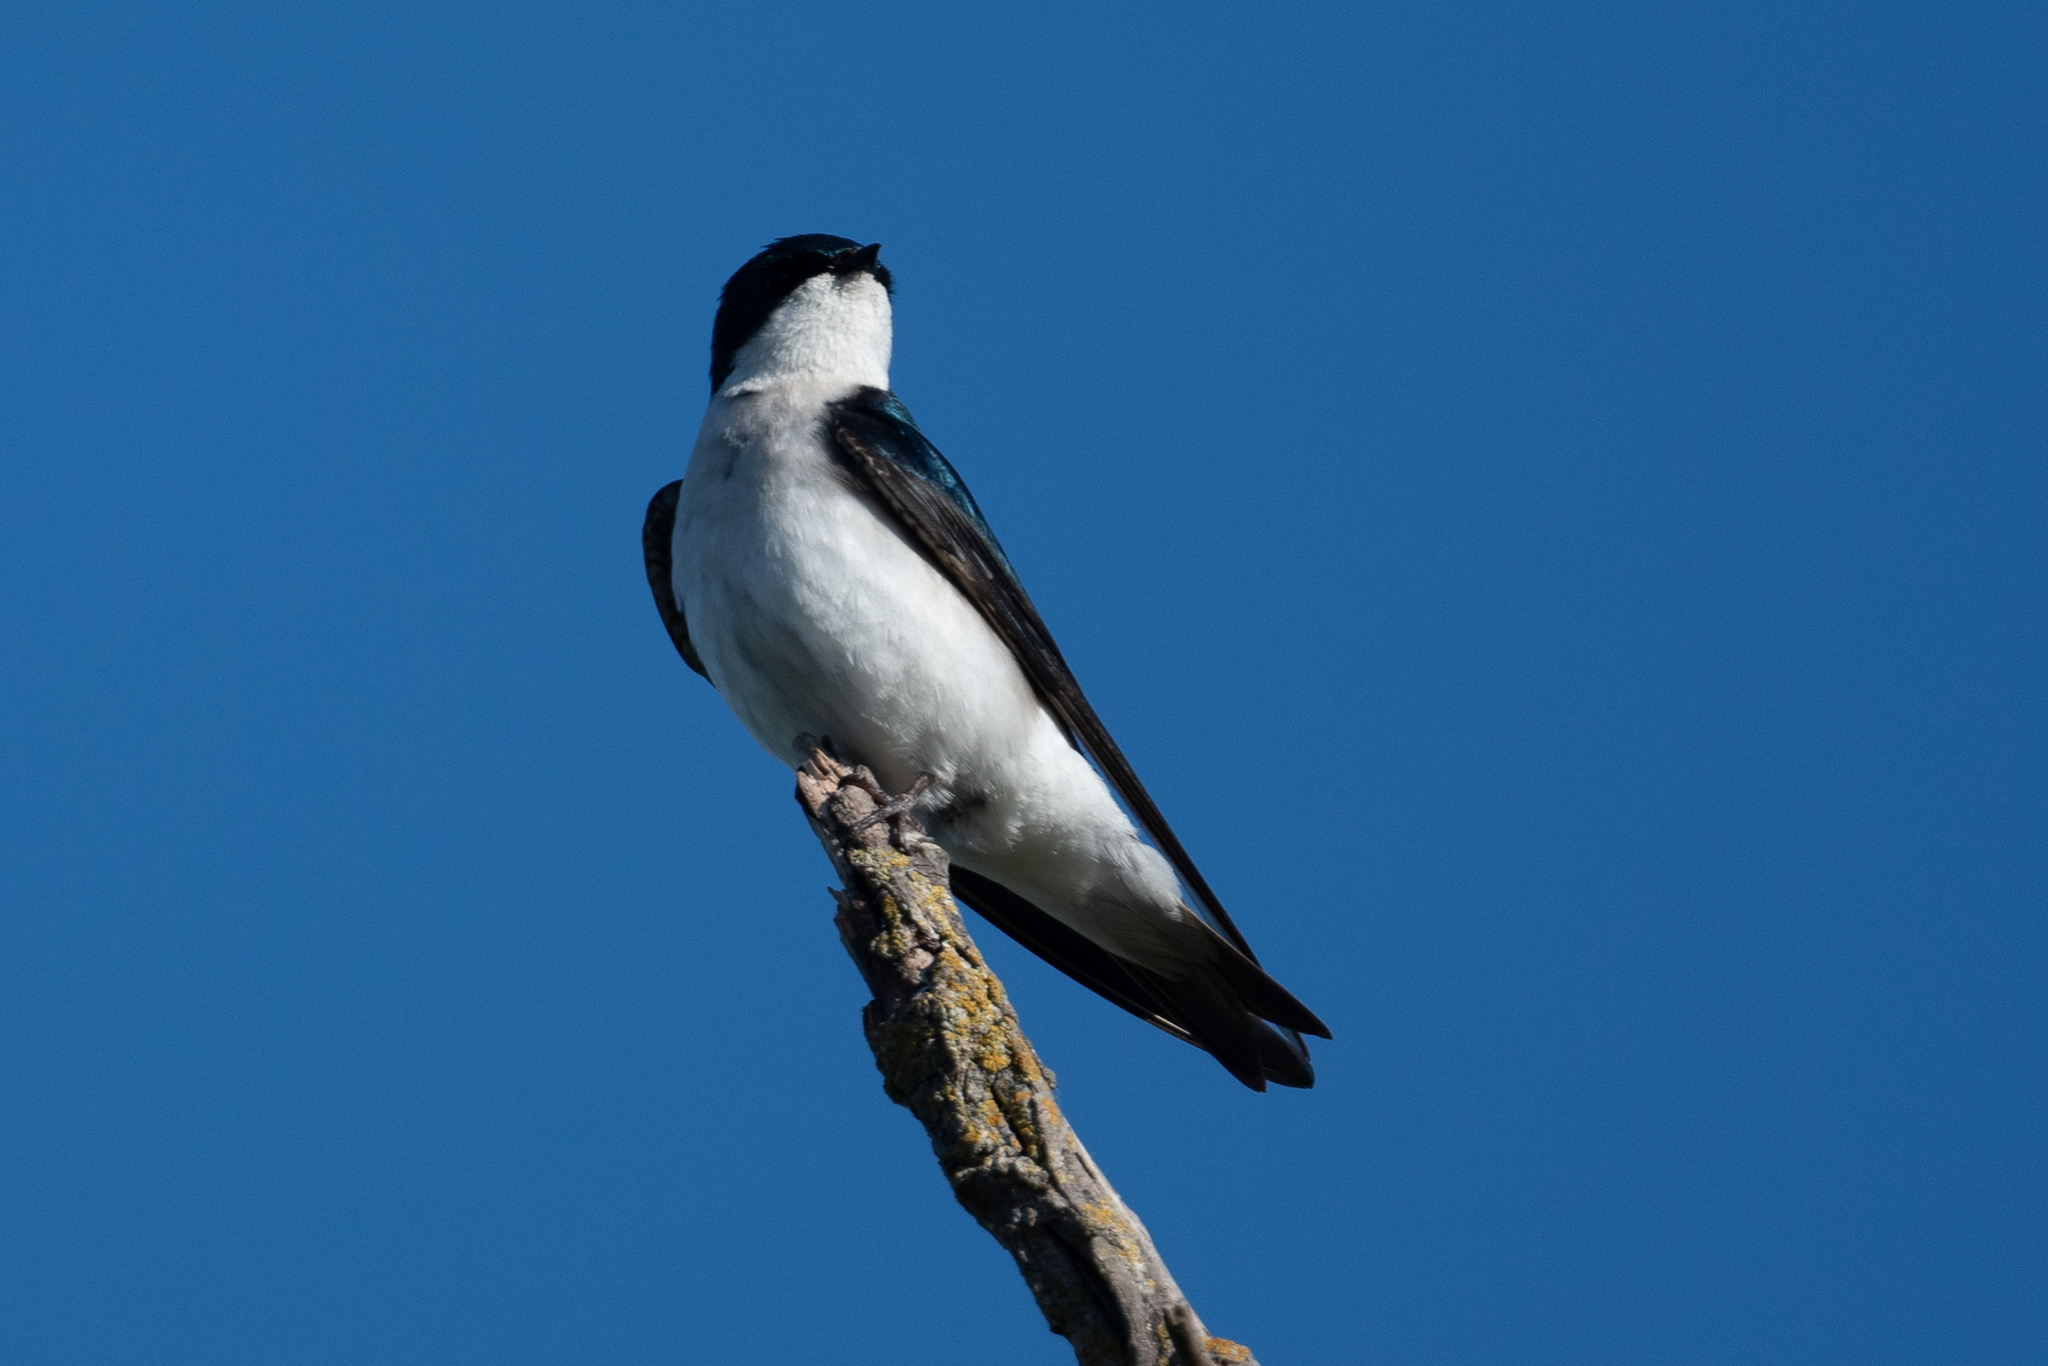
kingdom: Animalia
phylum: Chordata
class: Aves
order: Passeriformes
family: Hirundinidae
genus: Tachycineta
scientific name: Tachycineta bicolor
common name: Tree swallow
